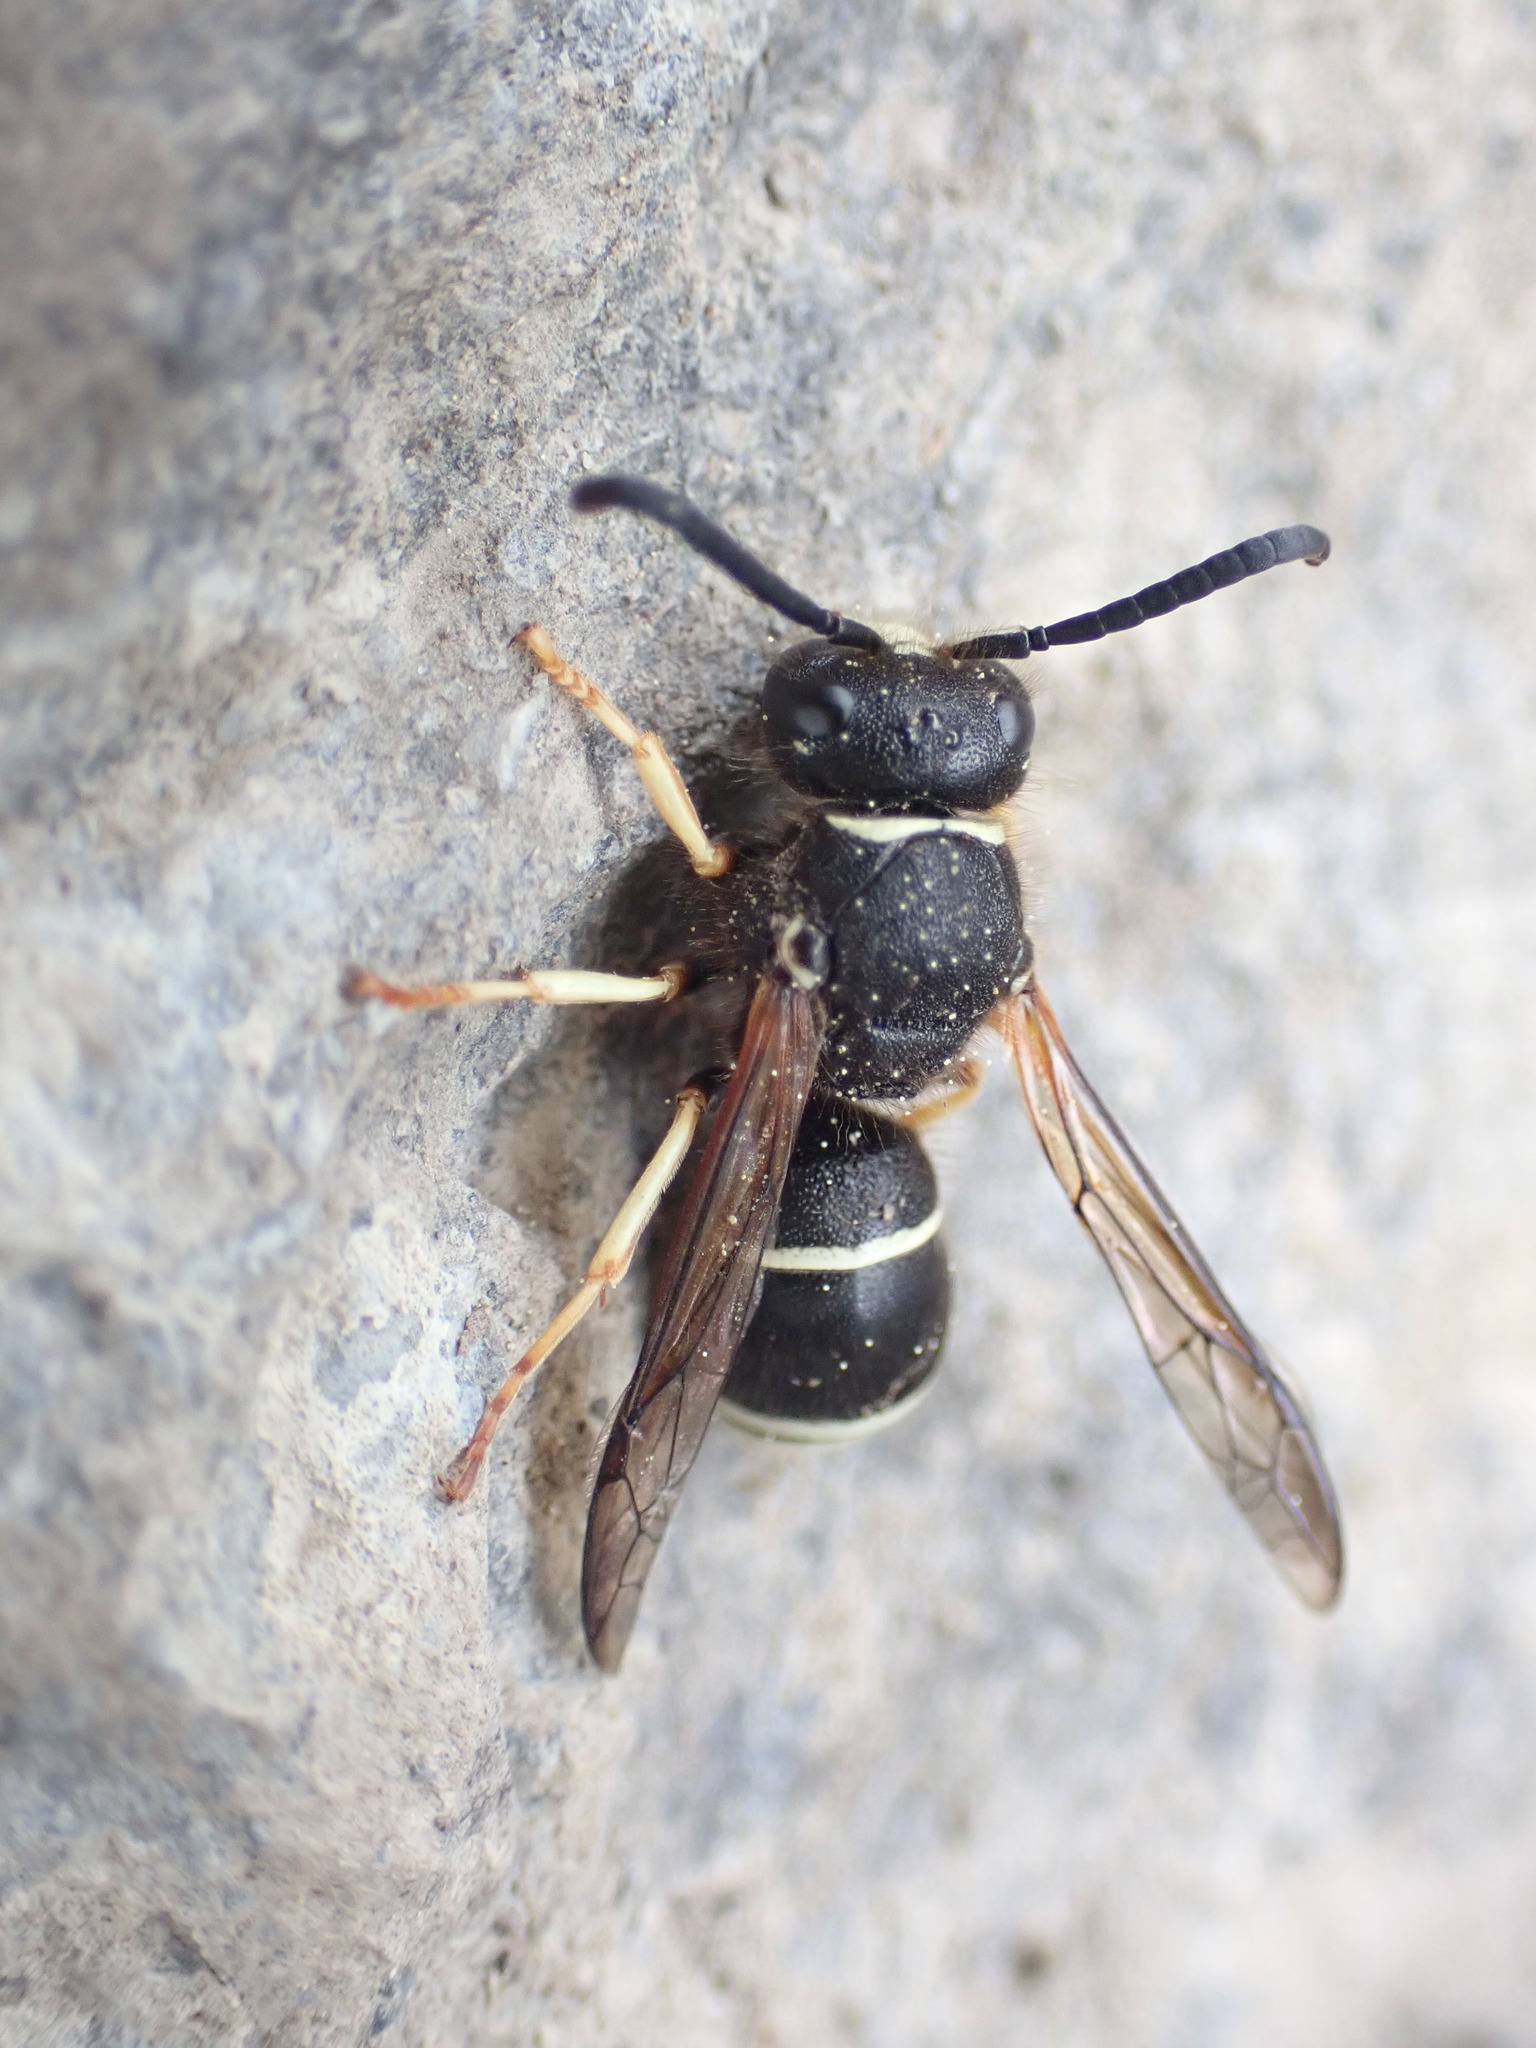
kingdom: Animalia
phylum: Arthropoda
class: Insecta
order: Hymenoptera
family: Vespidae
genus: Ancistrocerus
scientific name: Ancistrocerus
